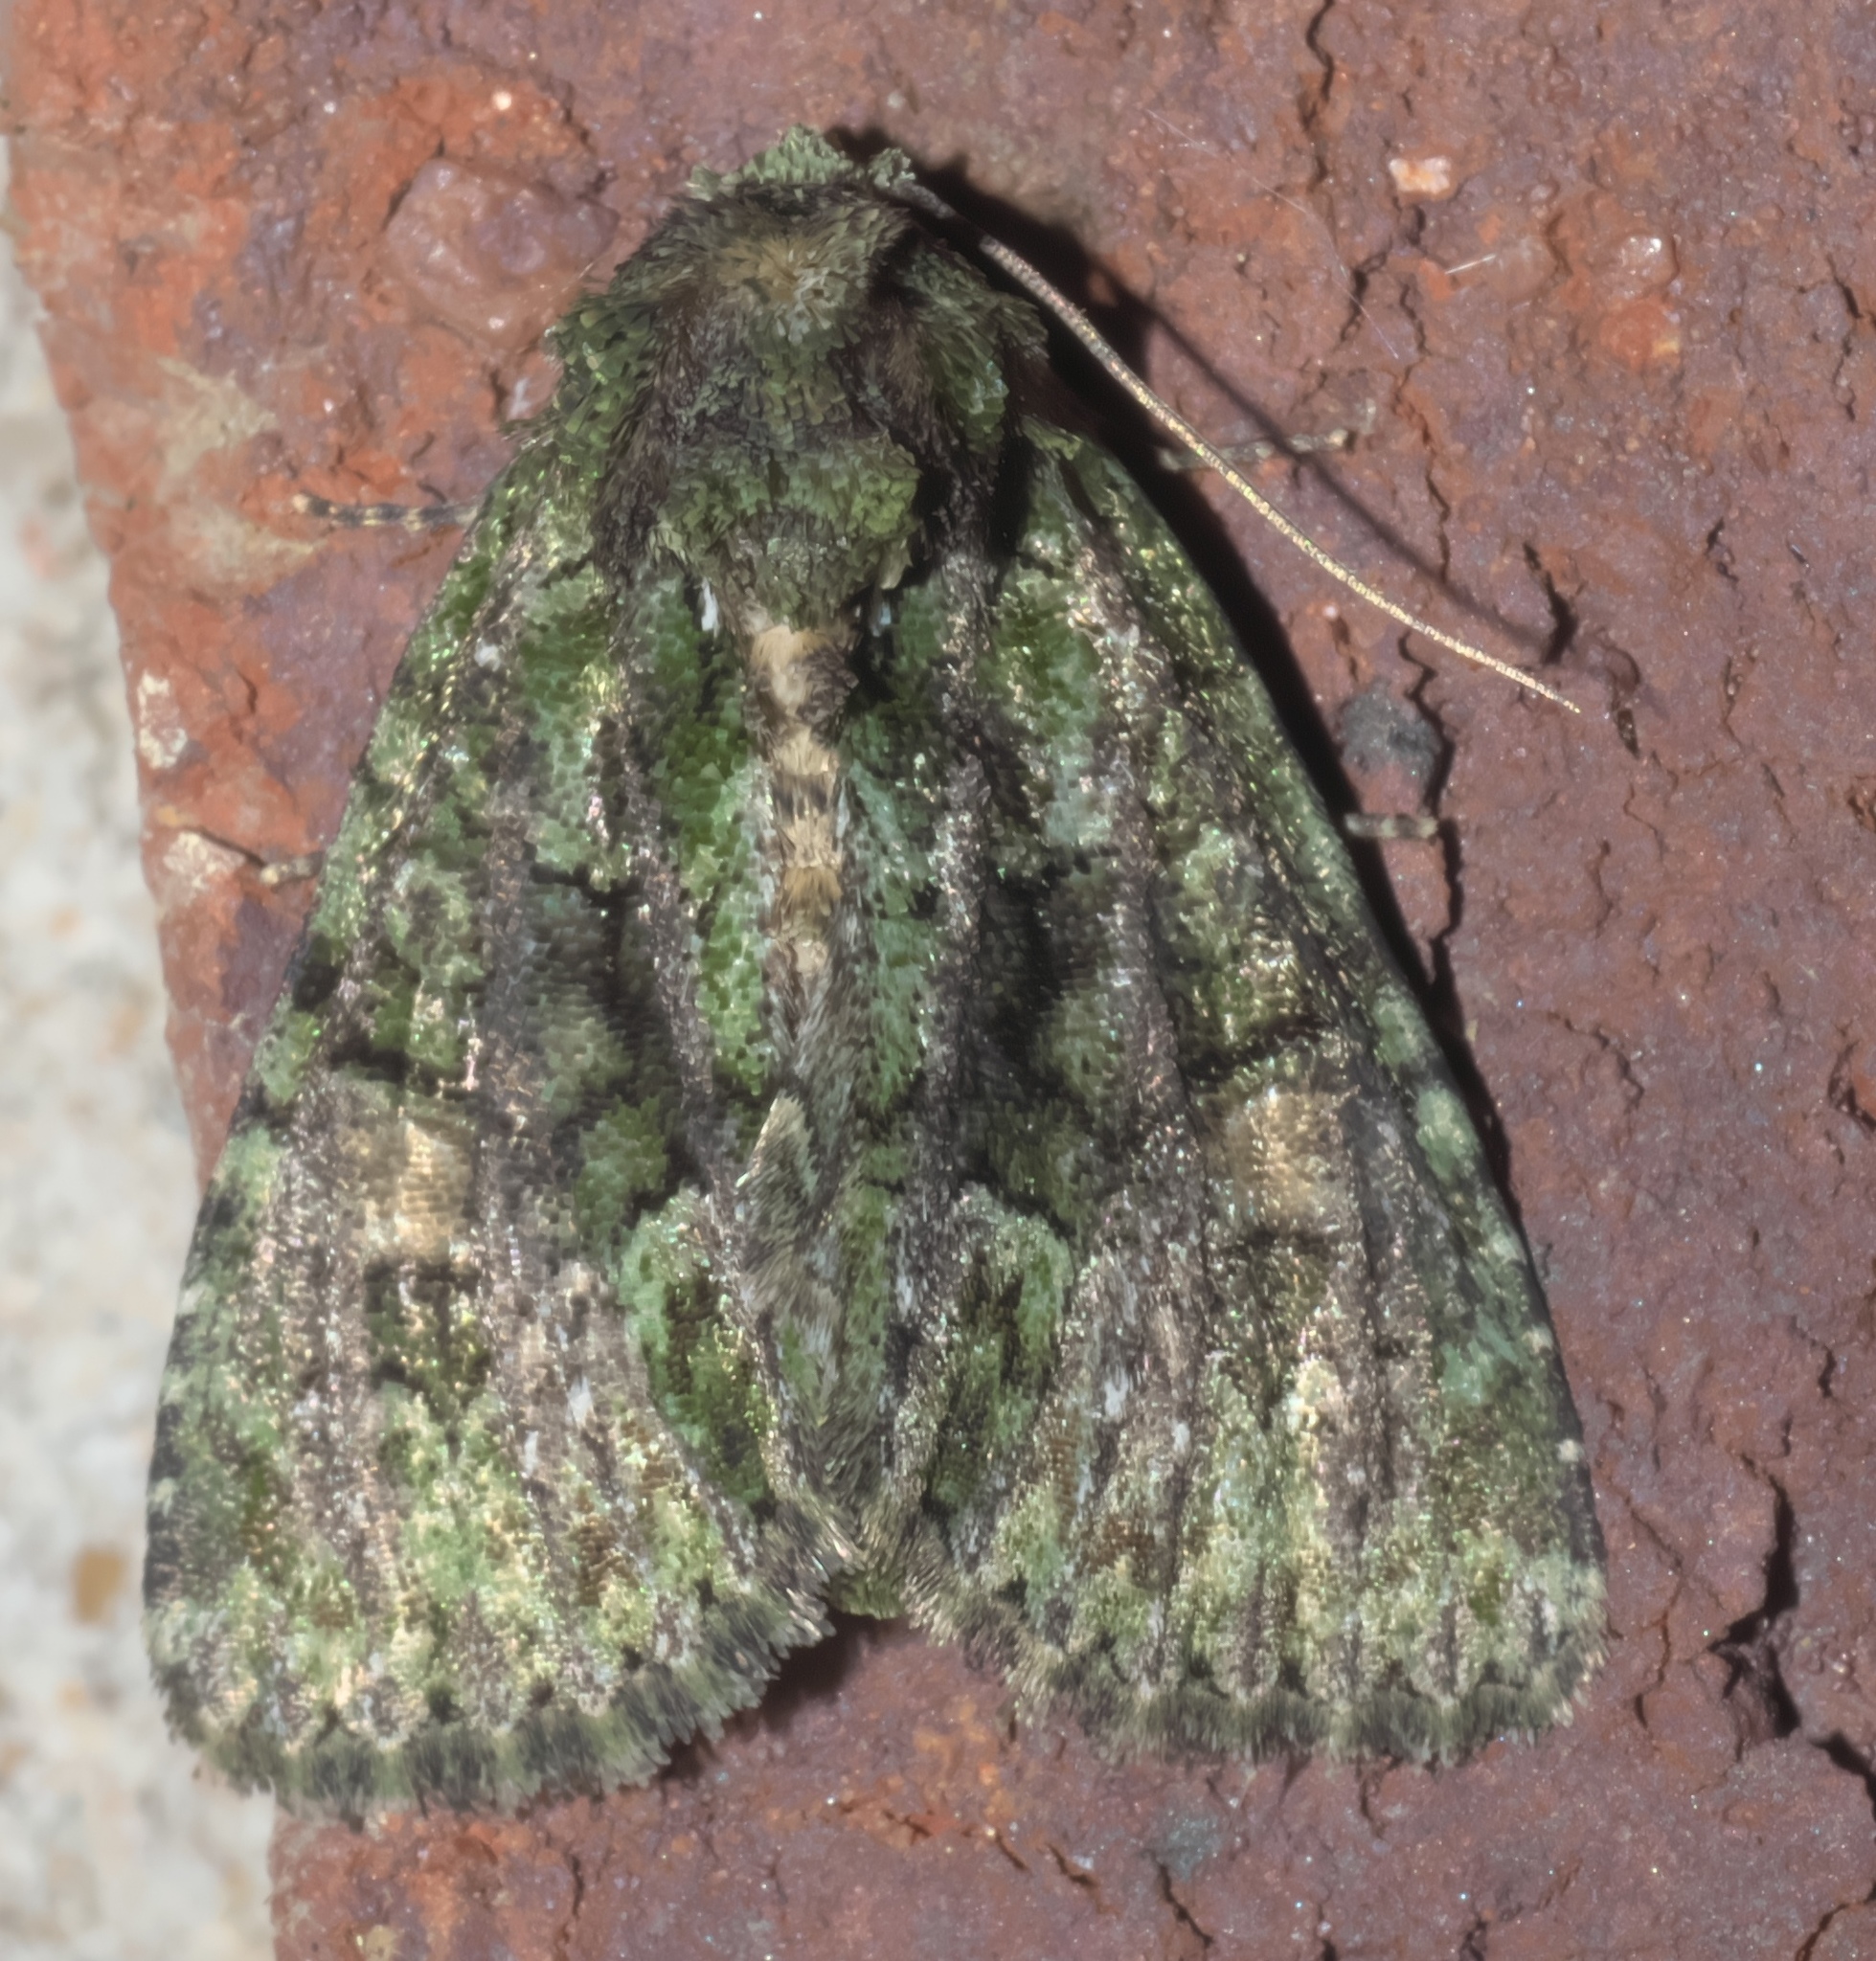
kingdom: Animalia
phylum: Arthropoda
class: Insecta
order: Lepidoptera
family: Noctuidae
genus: Phosphila
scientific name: Phosphila miselioides
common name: Spotted phosphila moth
